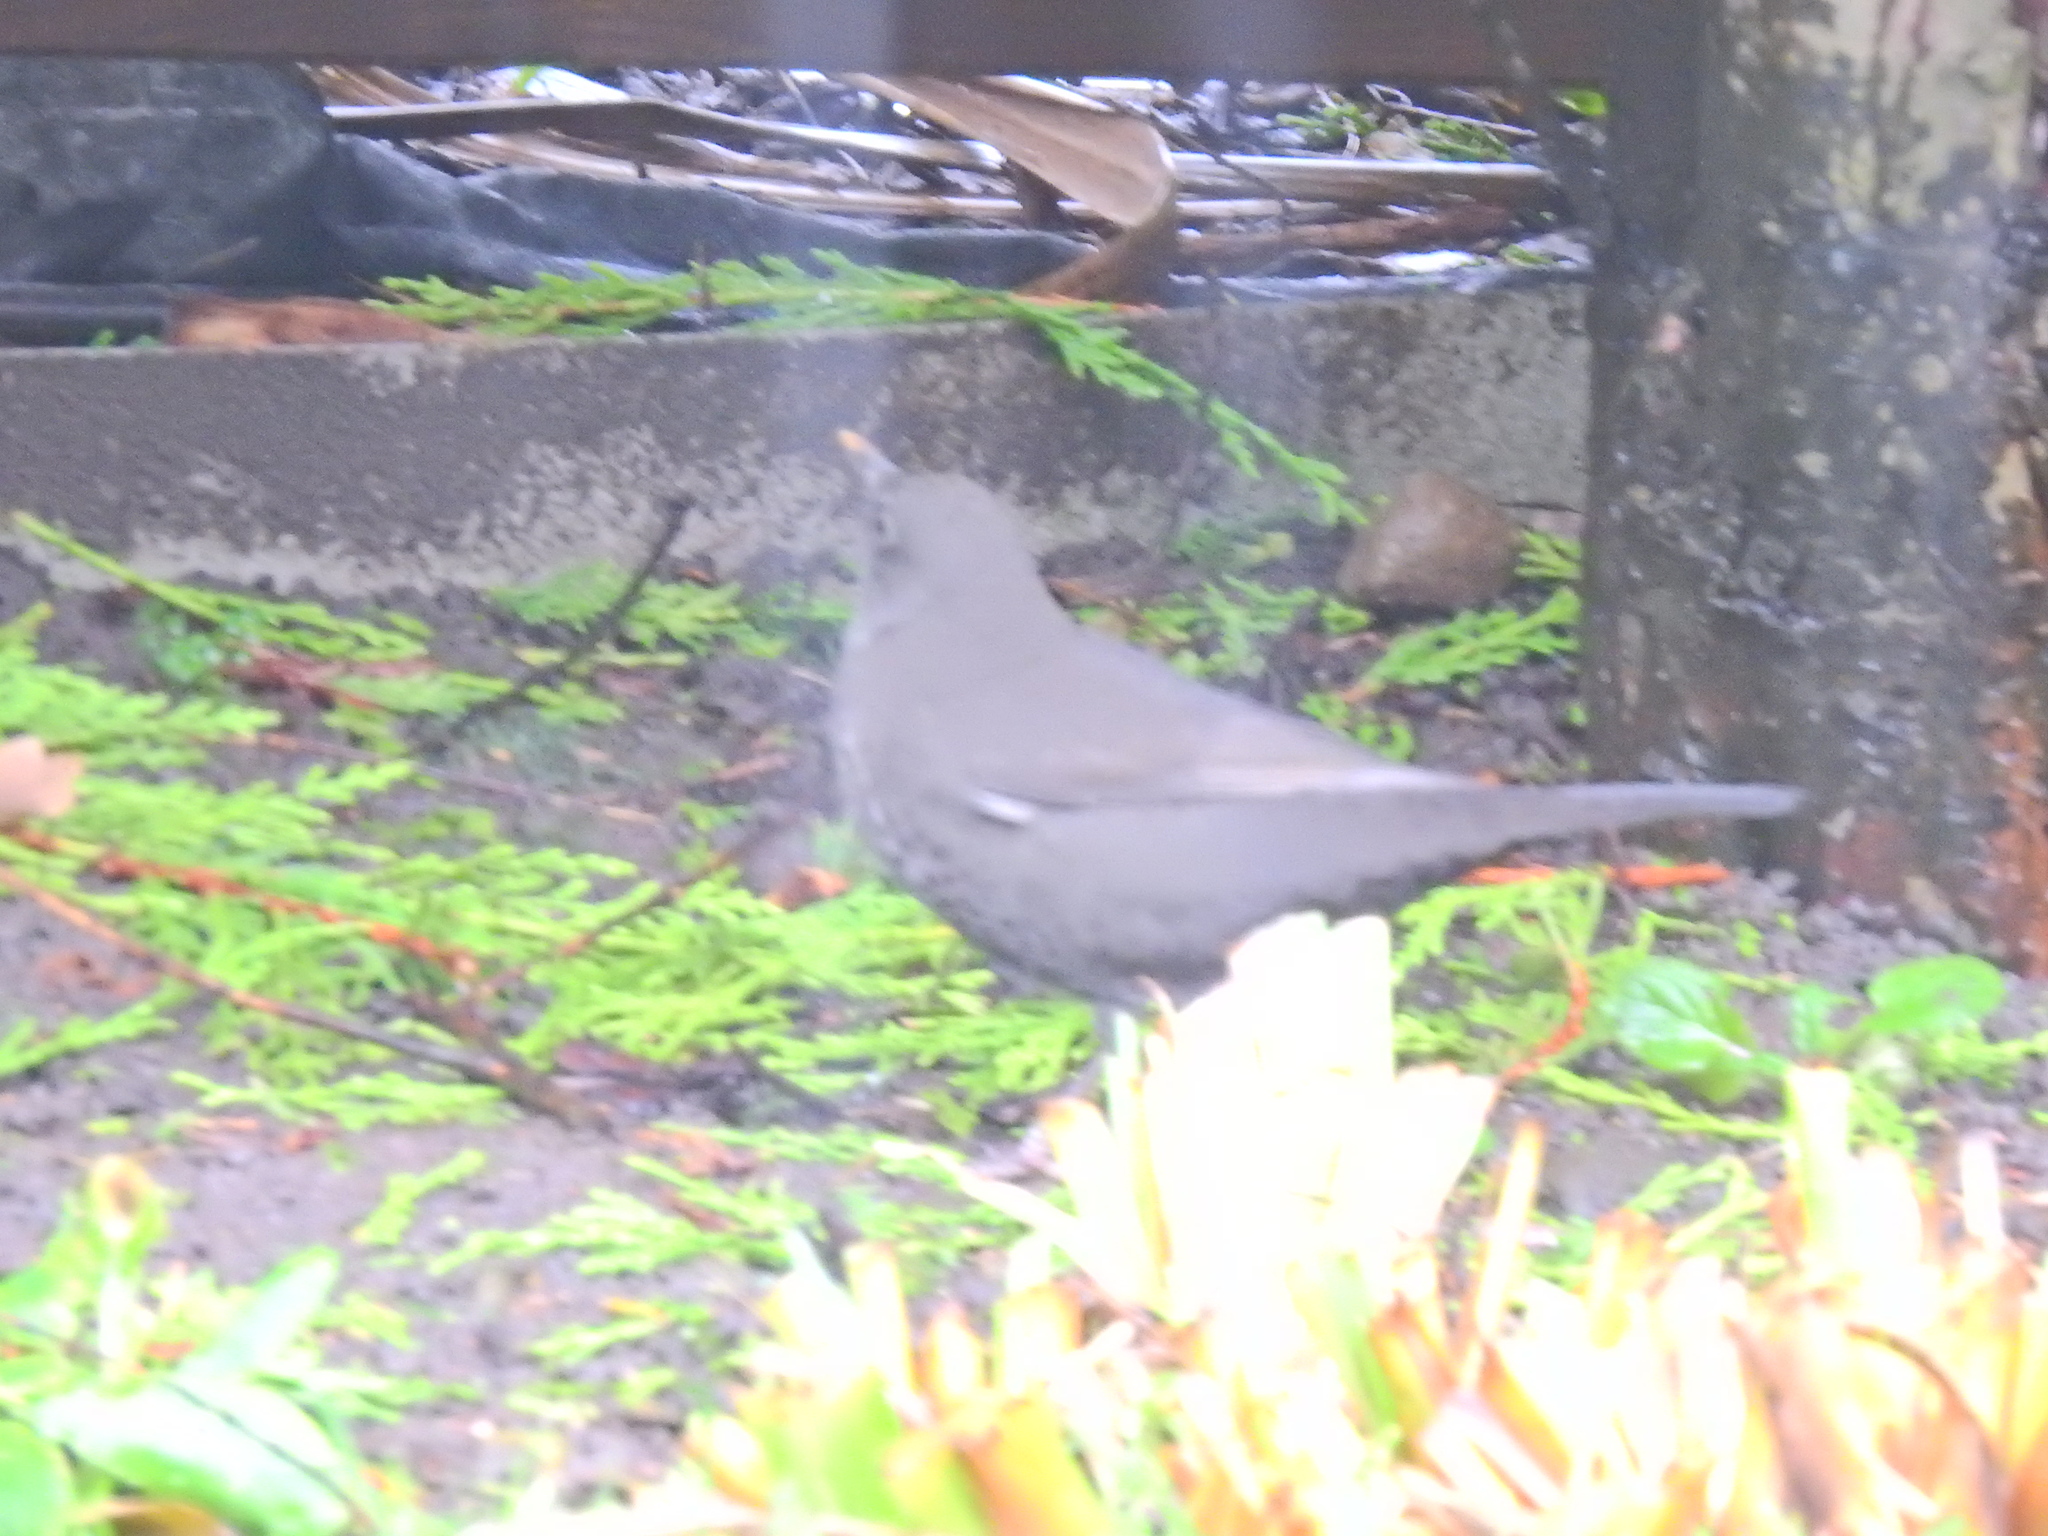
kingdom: Animalia
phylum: Chordata
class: Aves
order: Passeriformes
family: Turdidae
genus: Turdus
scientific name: Turdus merula
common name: Common blackbird
